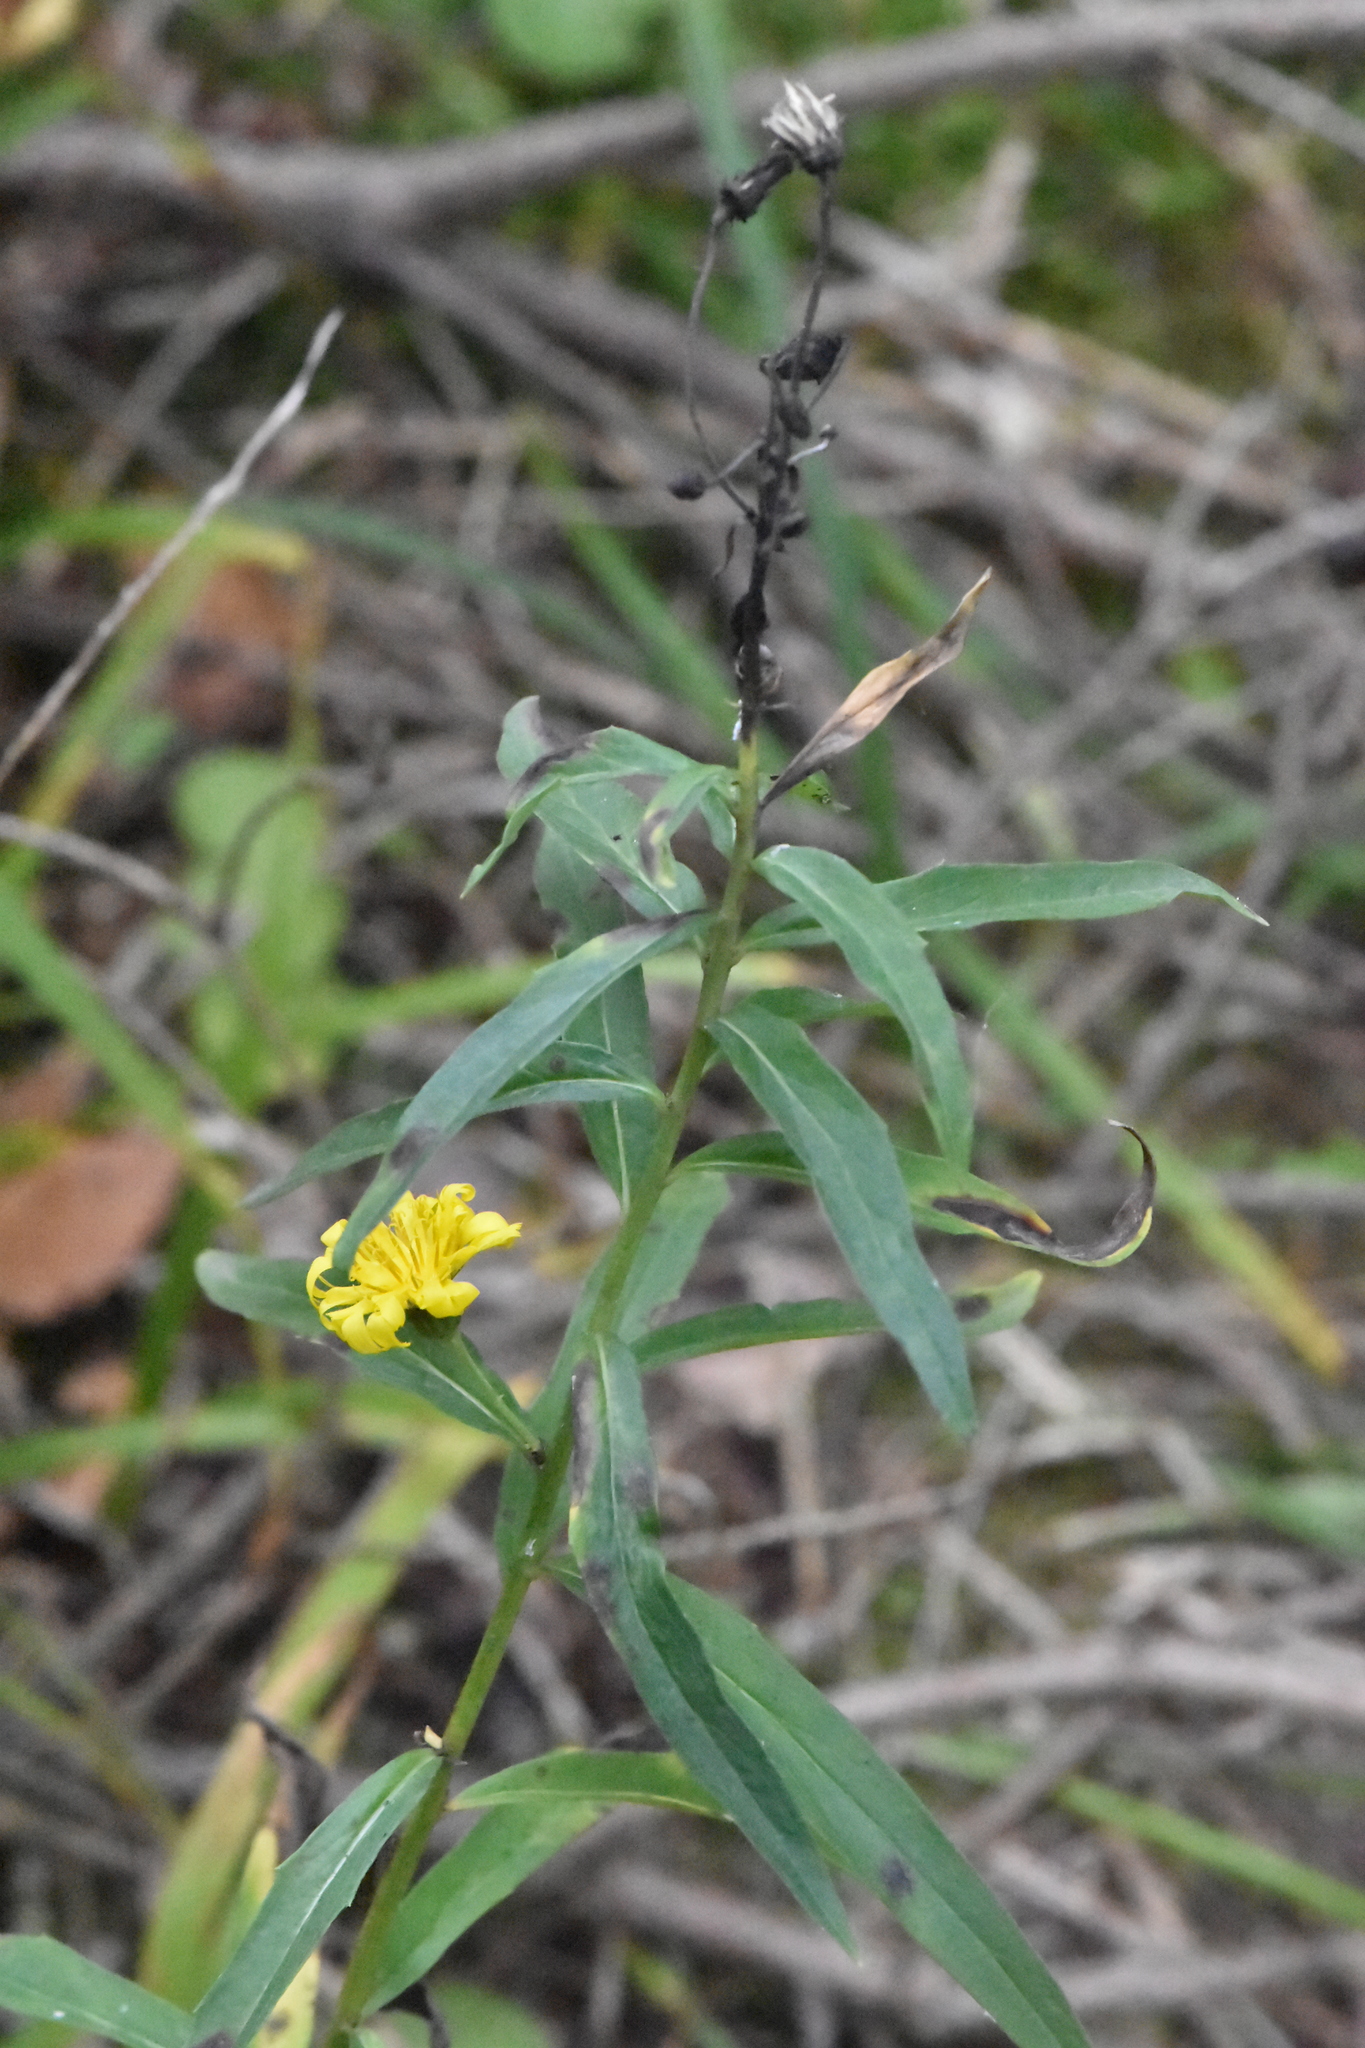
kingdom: Plantae
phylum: Tracheophyta
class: Magnoliopsida
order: Asterales
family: Asteraceae
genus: Hieracium
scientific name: Hieracium umbellatum
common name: Northern hawkweed
